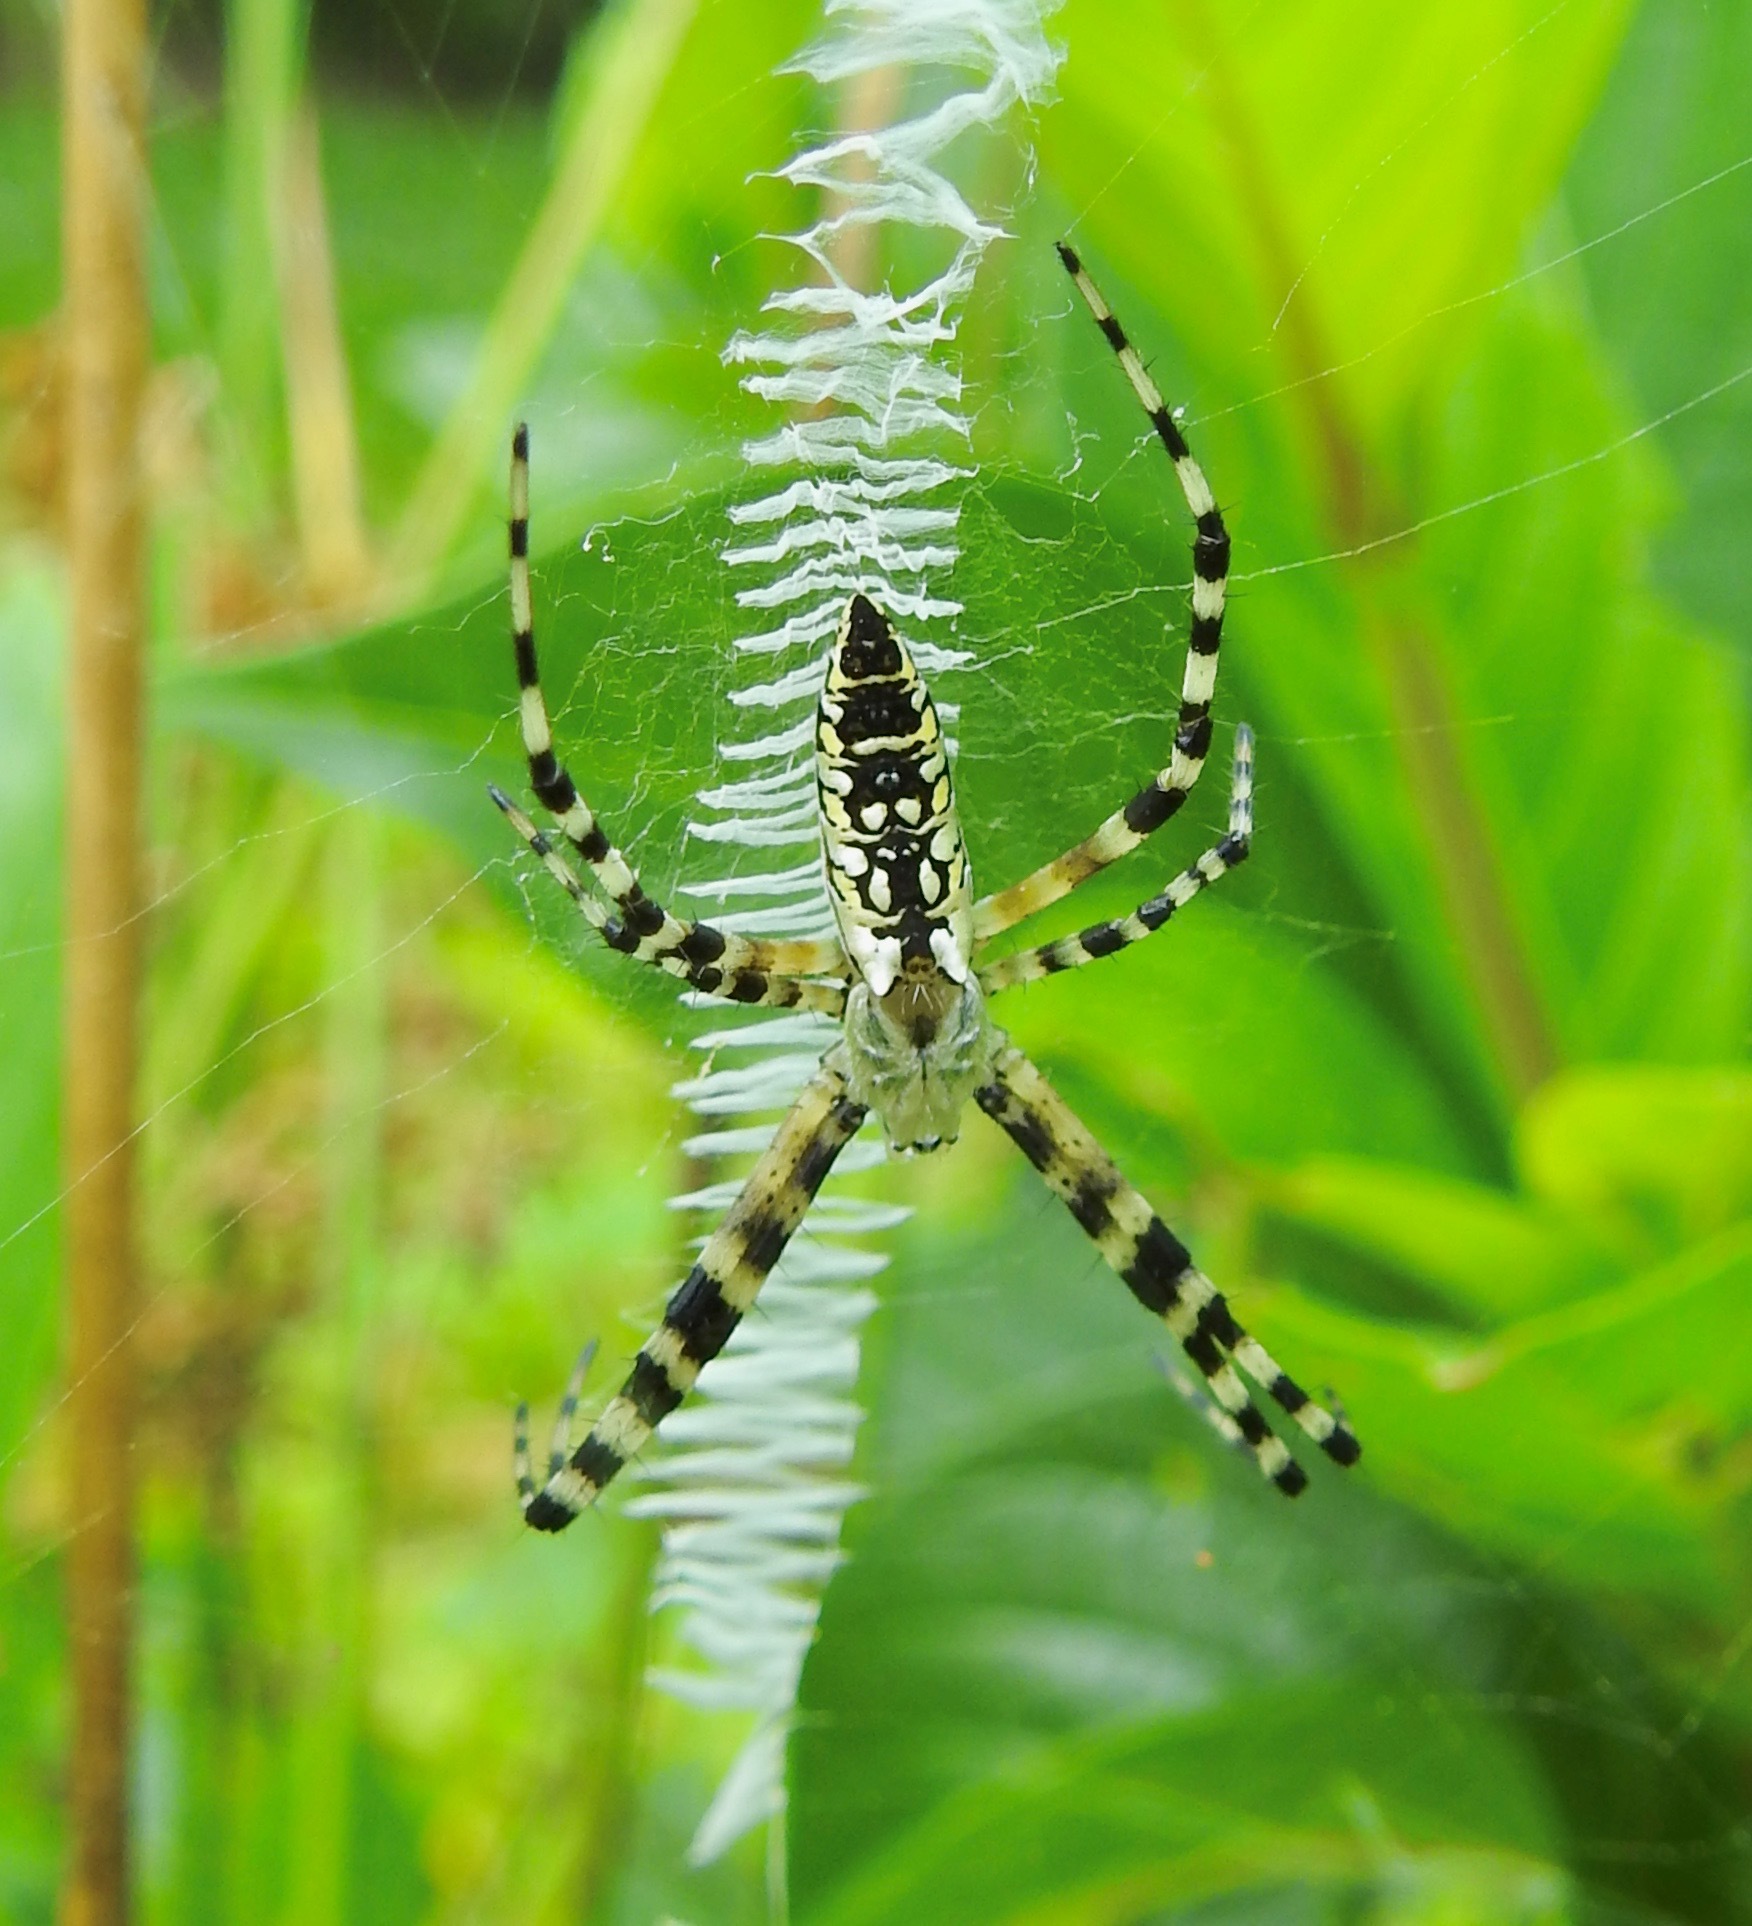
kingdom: Animalia
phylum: Arthropoda
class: Arachnida
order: Araneae
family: Araneidae
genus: Argiope
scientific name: Argiope aurantia
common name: Orb weavers
